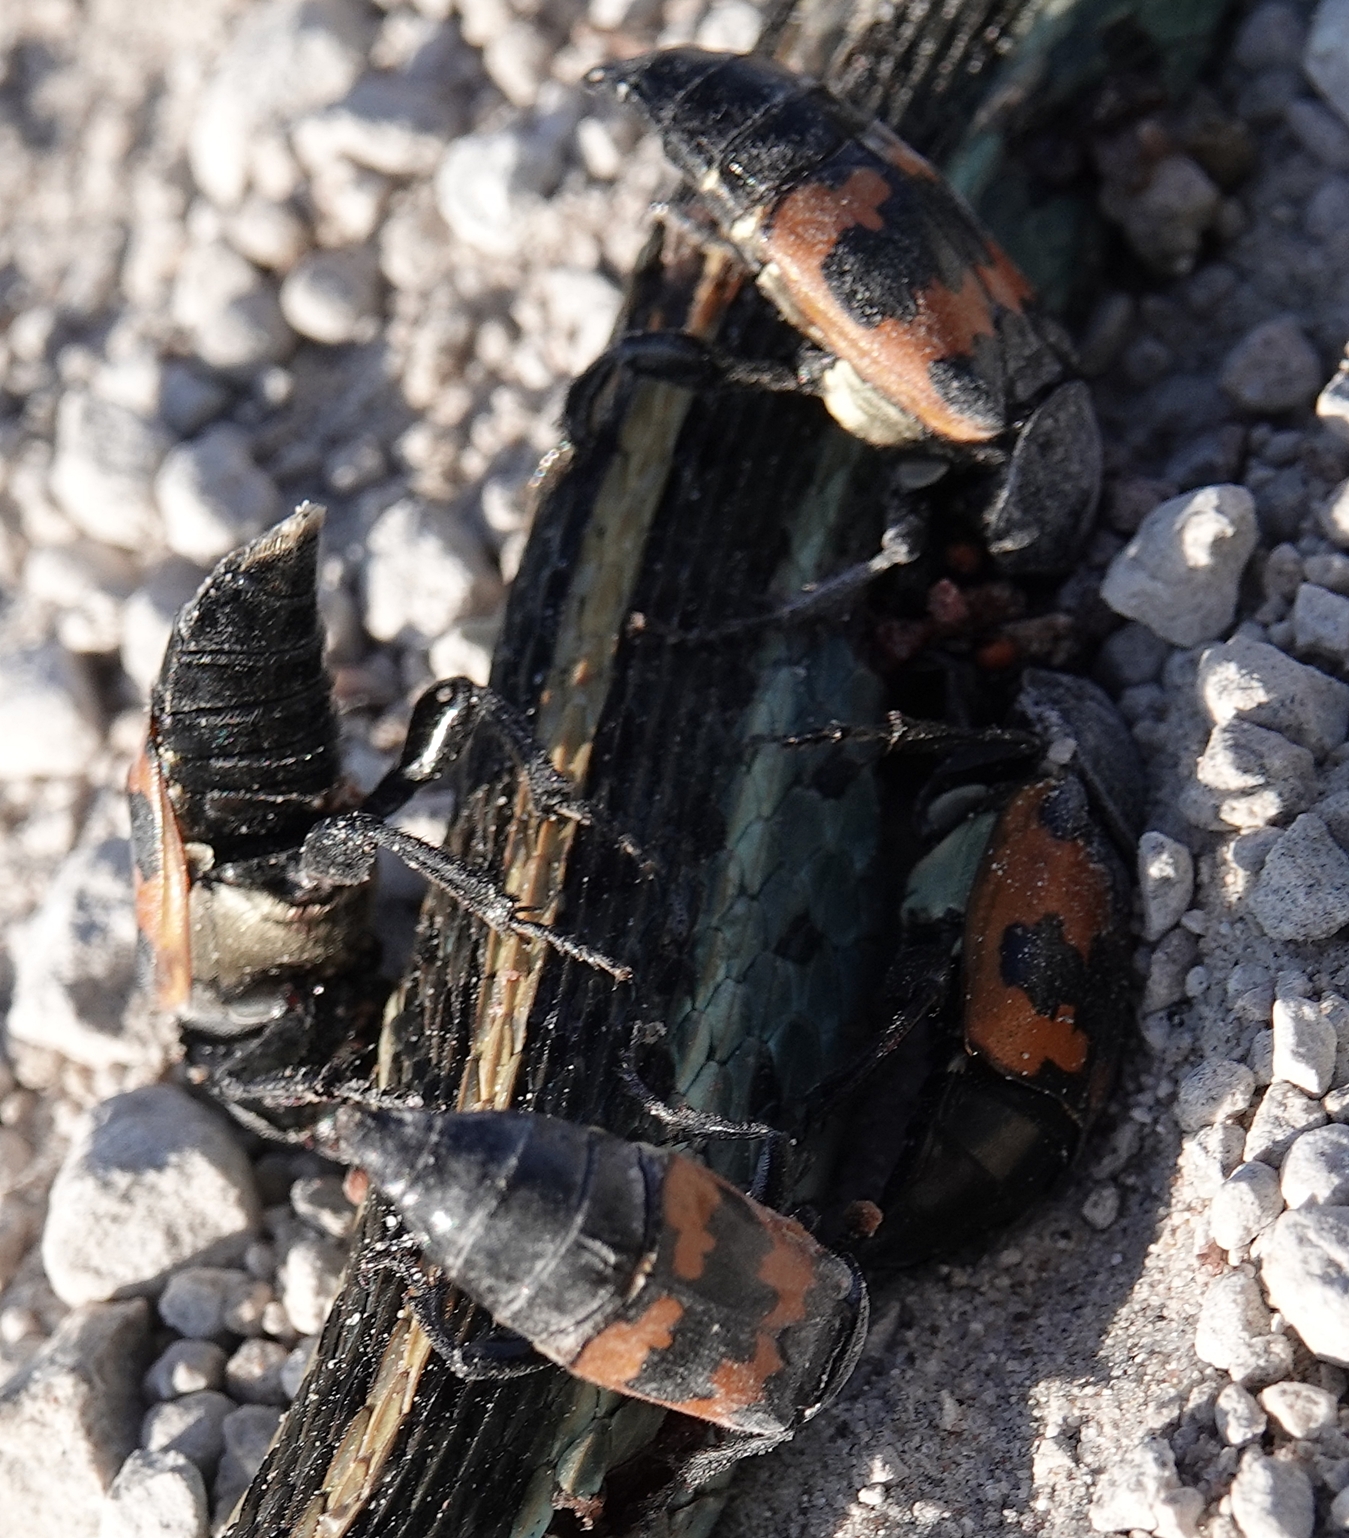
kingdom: Animalia
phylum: Arthropoda
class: Insecta
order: Coleoptera
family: Staphylinidae
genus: Nicrophorus
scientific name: Nicrophorus marginatus
